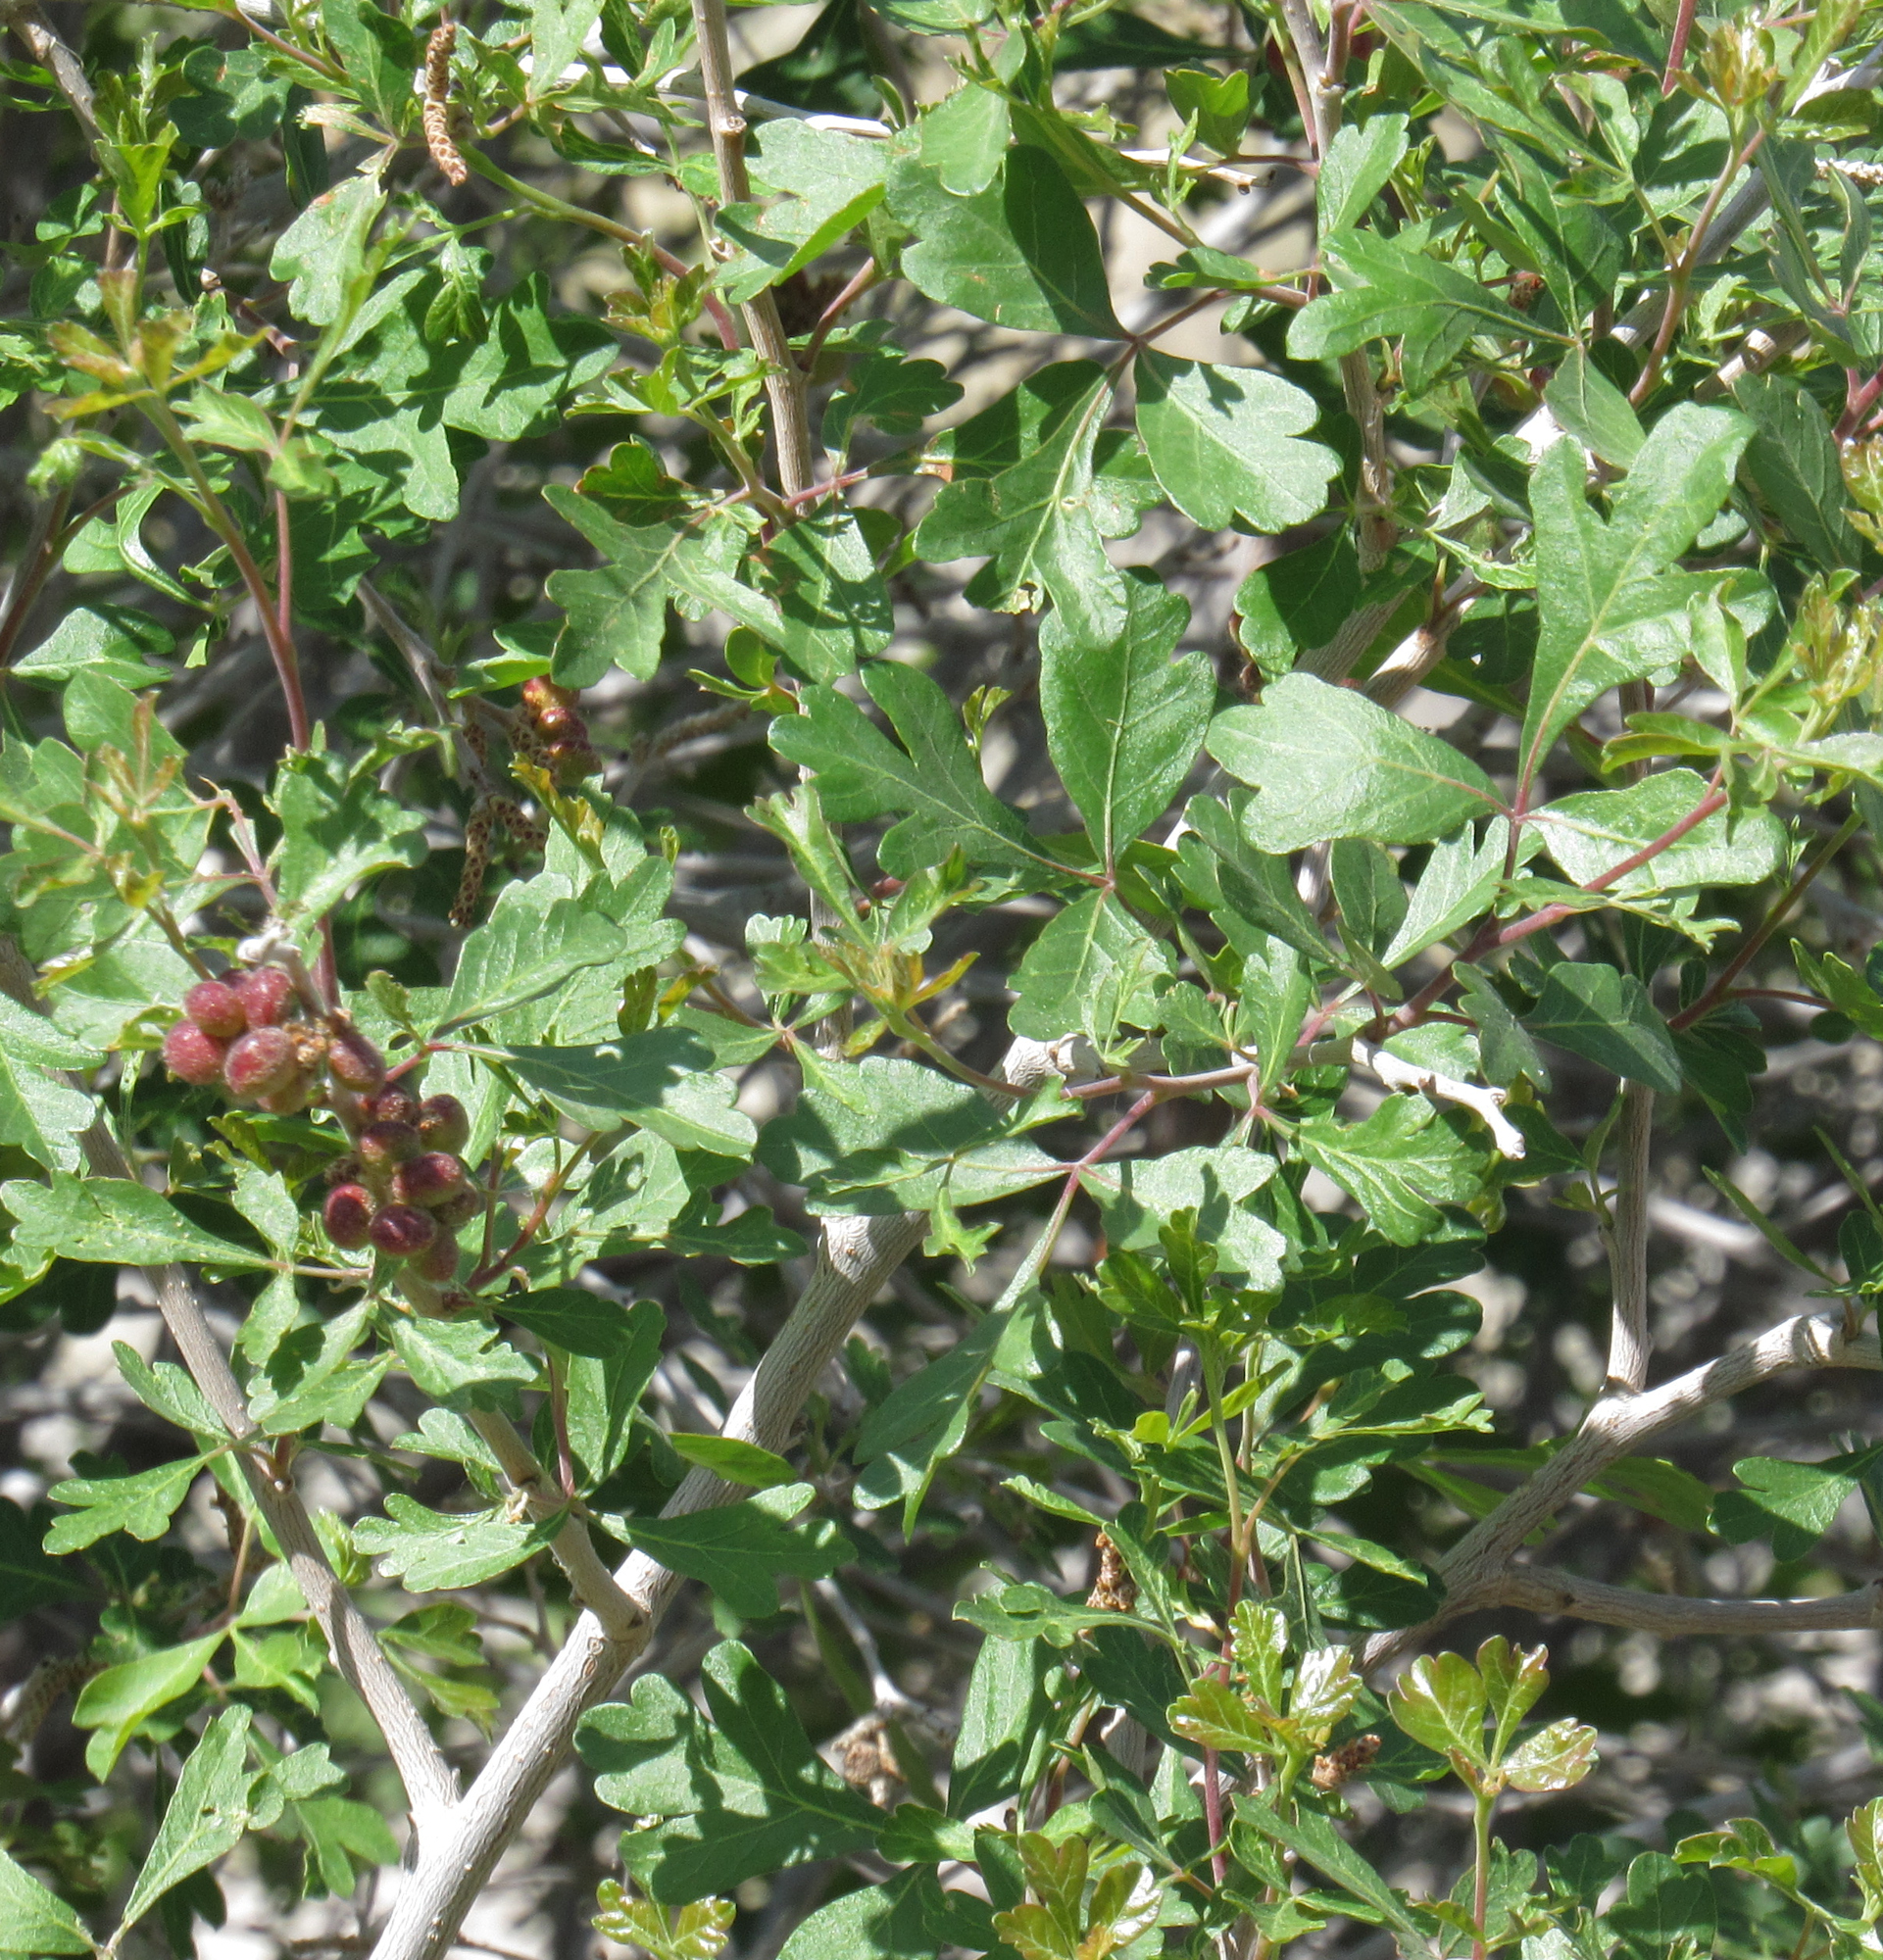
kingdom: Plantae
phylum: Tracheophyta
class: Magnoliopsida
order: Sapindales
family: Anacardiaceae
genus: Rhus
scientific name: Rhus trilobata
